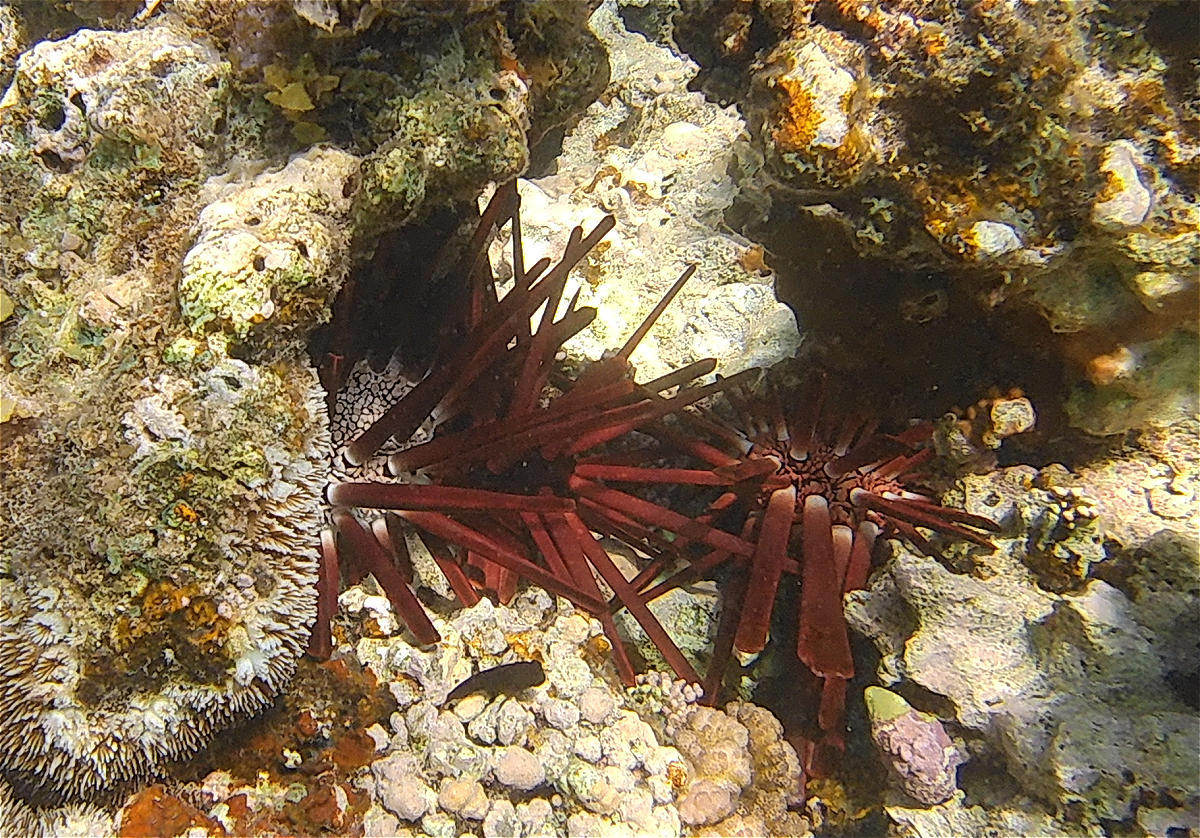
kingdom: Animalia
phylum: Echinodermata
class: Echinoidea
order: Camarodonta
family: Echinometridae
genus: Heterocentrotus
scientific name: Heterocentrotus mamillatus
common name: Slate pencil urchin
